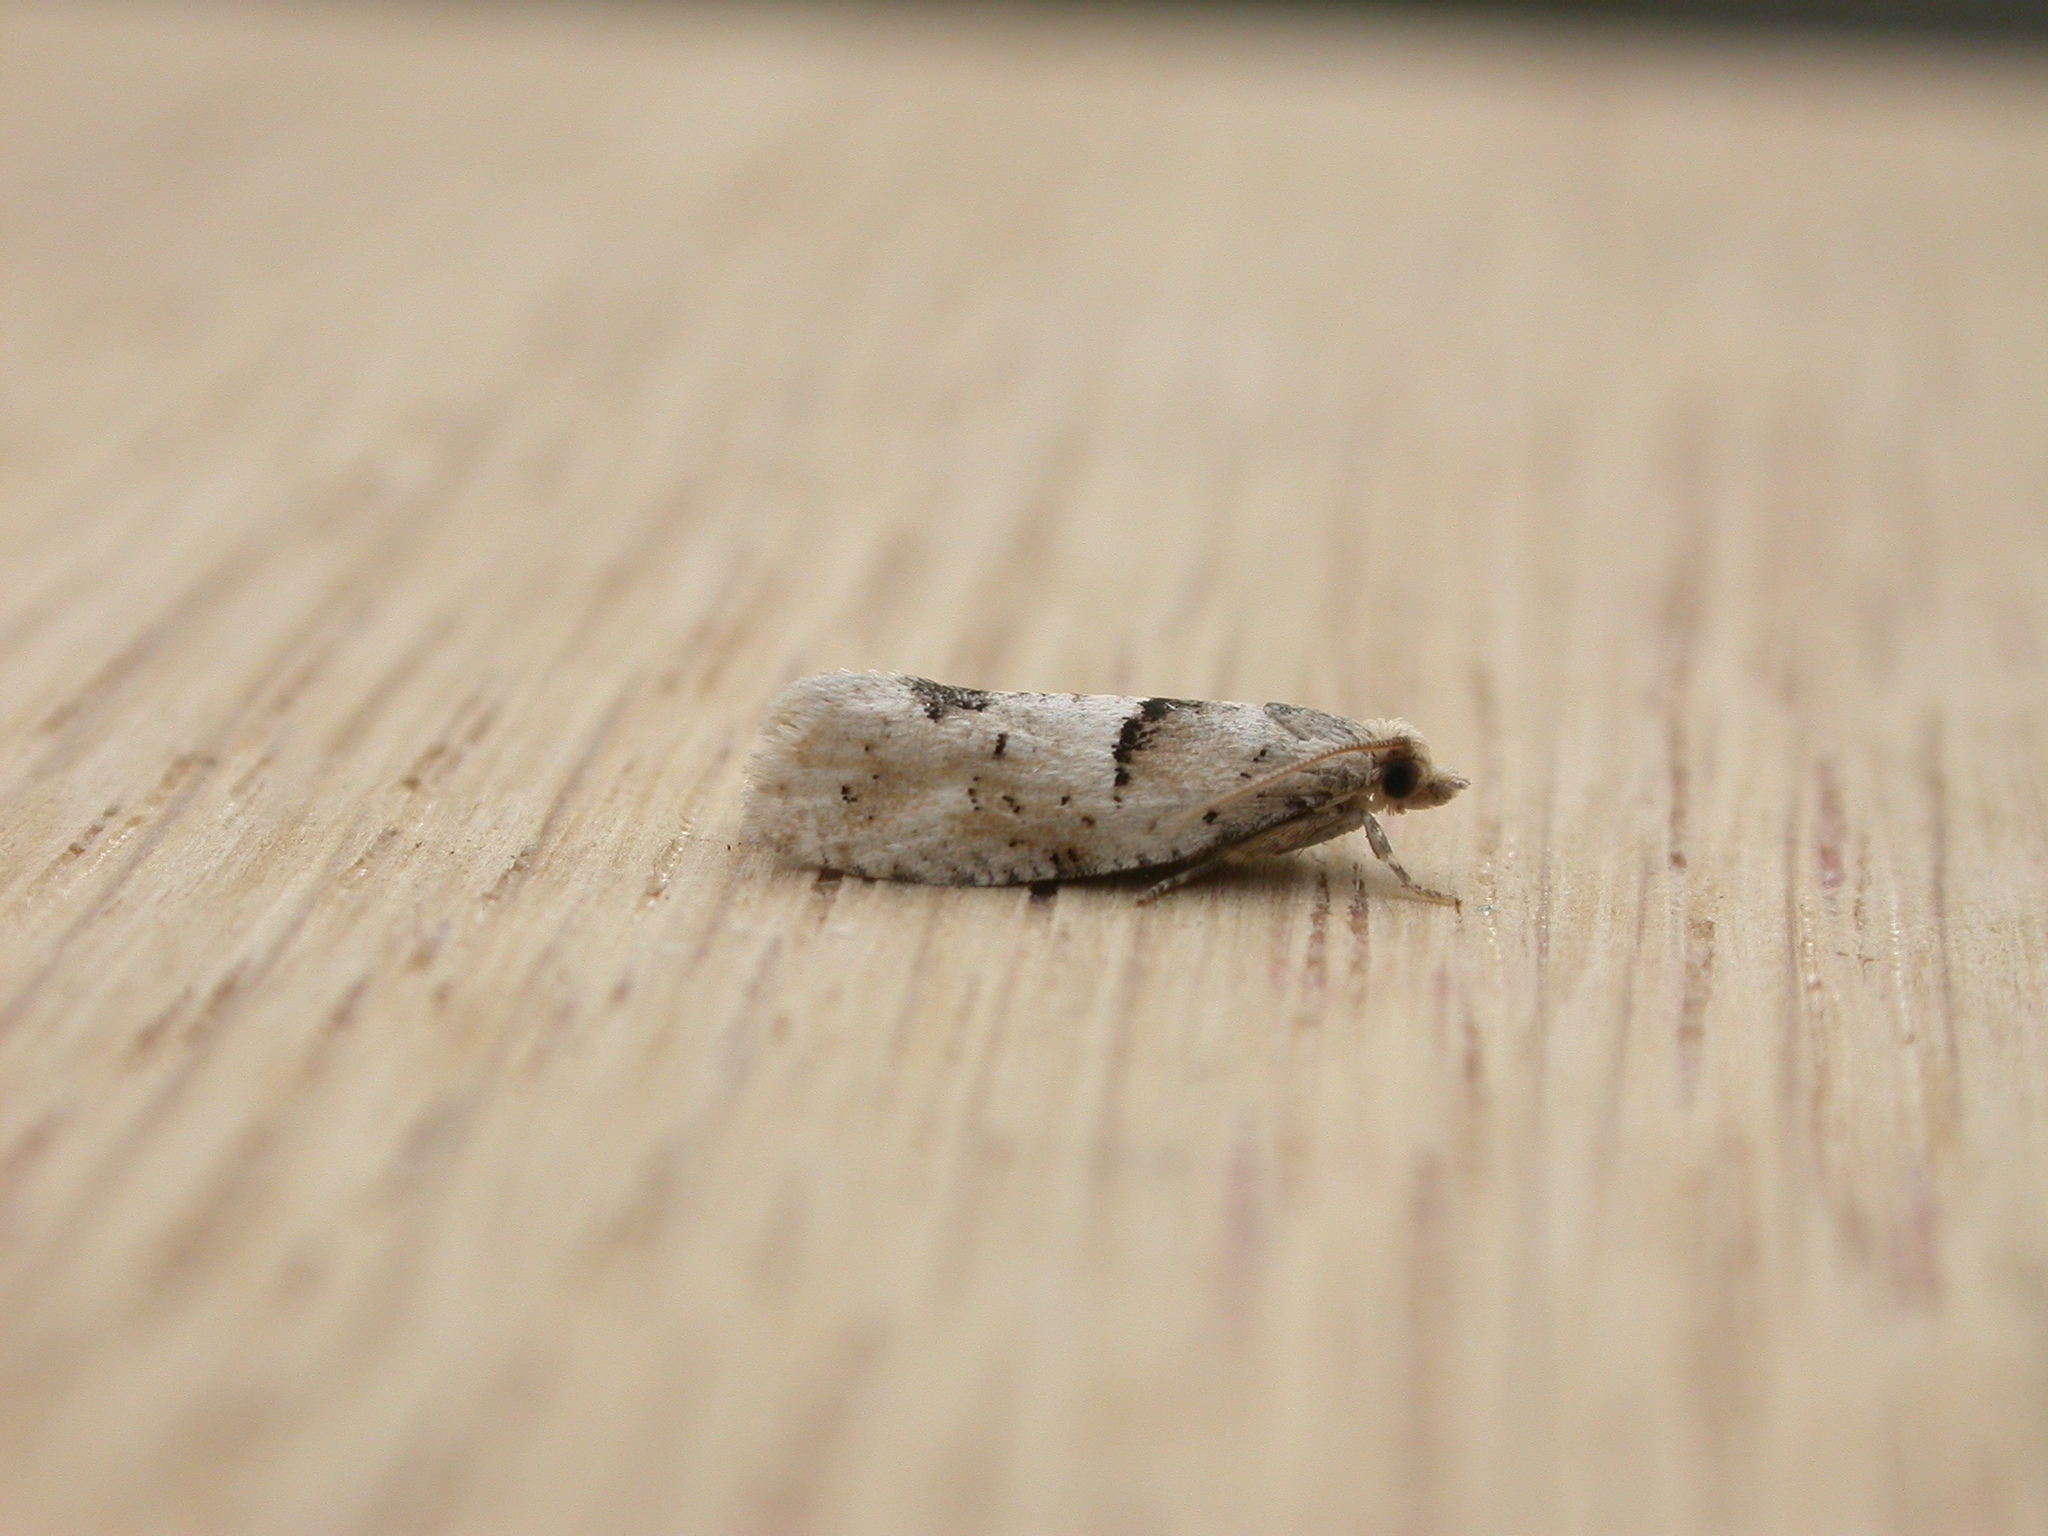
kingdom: Animalia
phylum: Arthropoda
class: Insecta
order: Lepidoptera
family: Tortricidae
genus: Epinotia
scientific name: Epinotia bilunana
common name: Crescent bell
